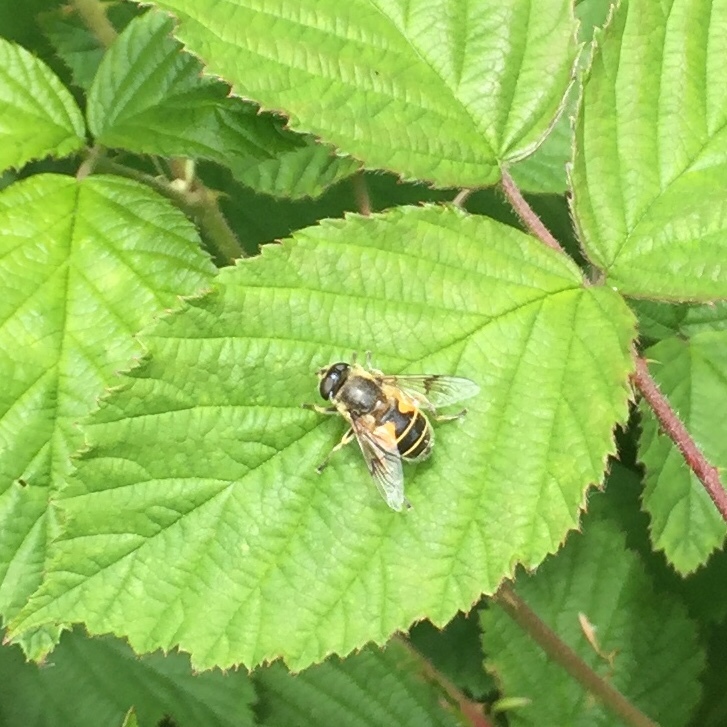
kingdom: Animalia
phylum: Arthropoda
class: Insecta
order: Diptera
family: Syrphidae
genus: Cheilosia
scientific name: Cheilosia morio
